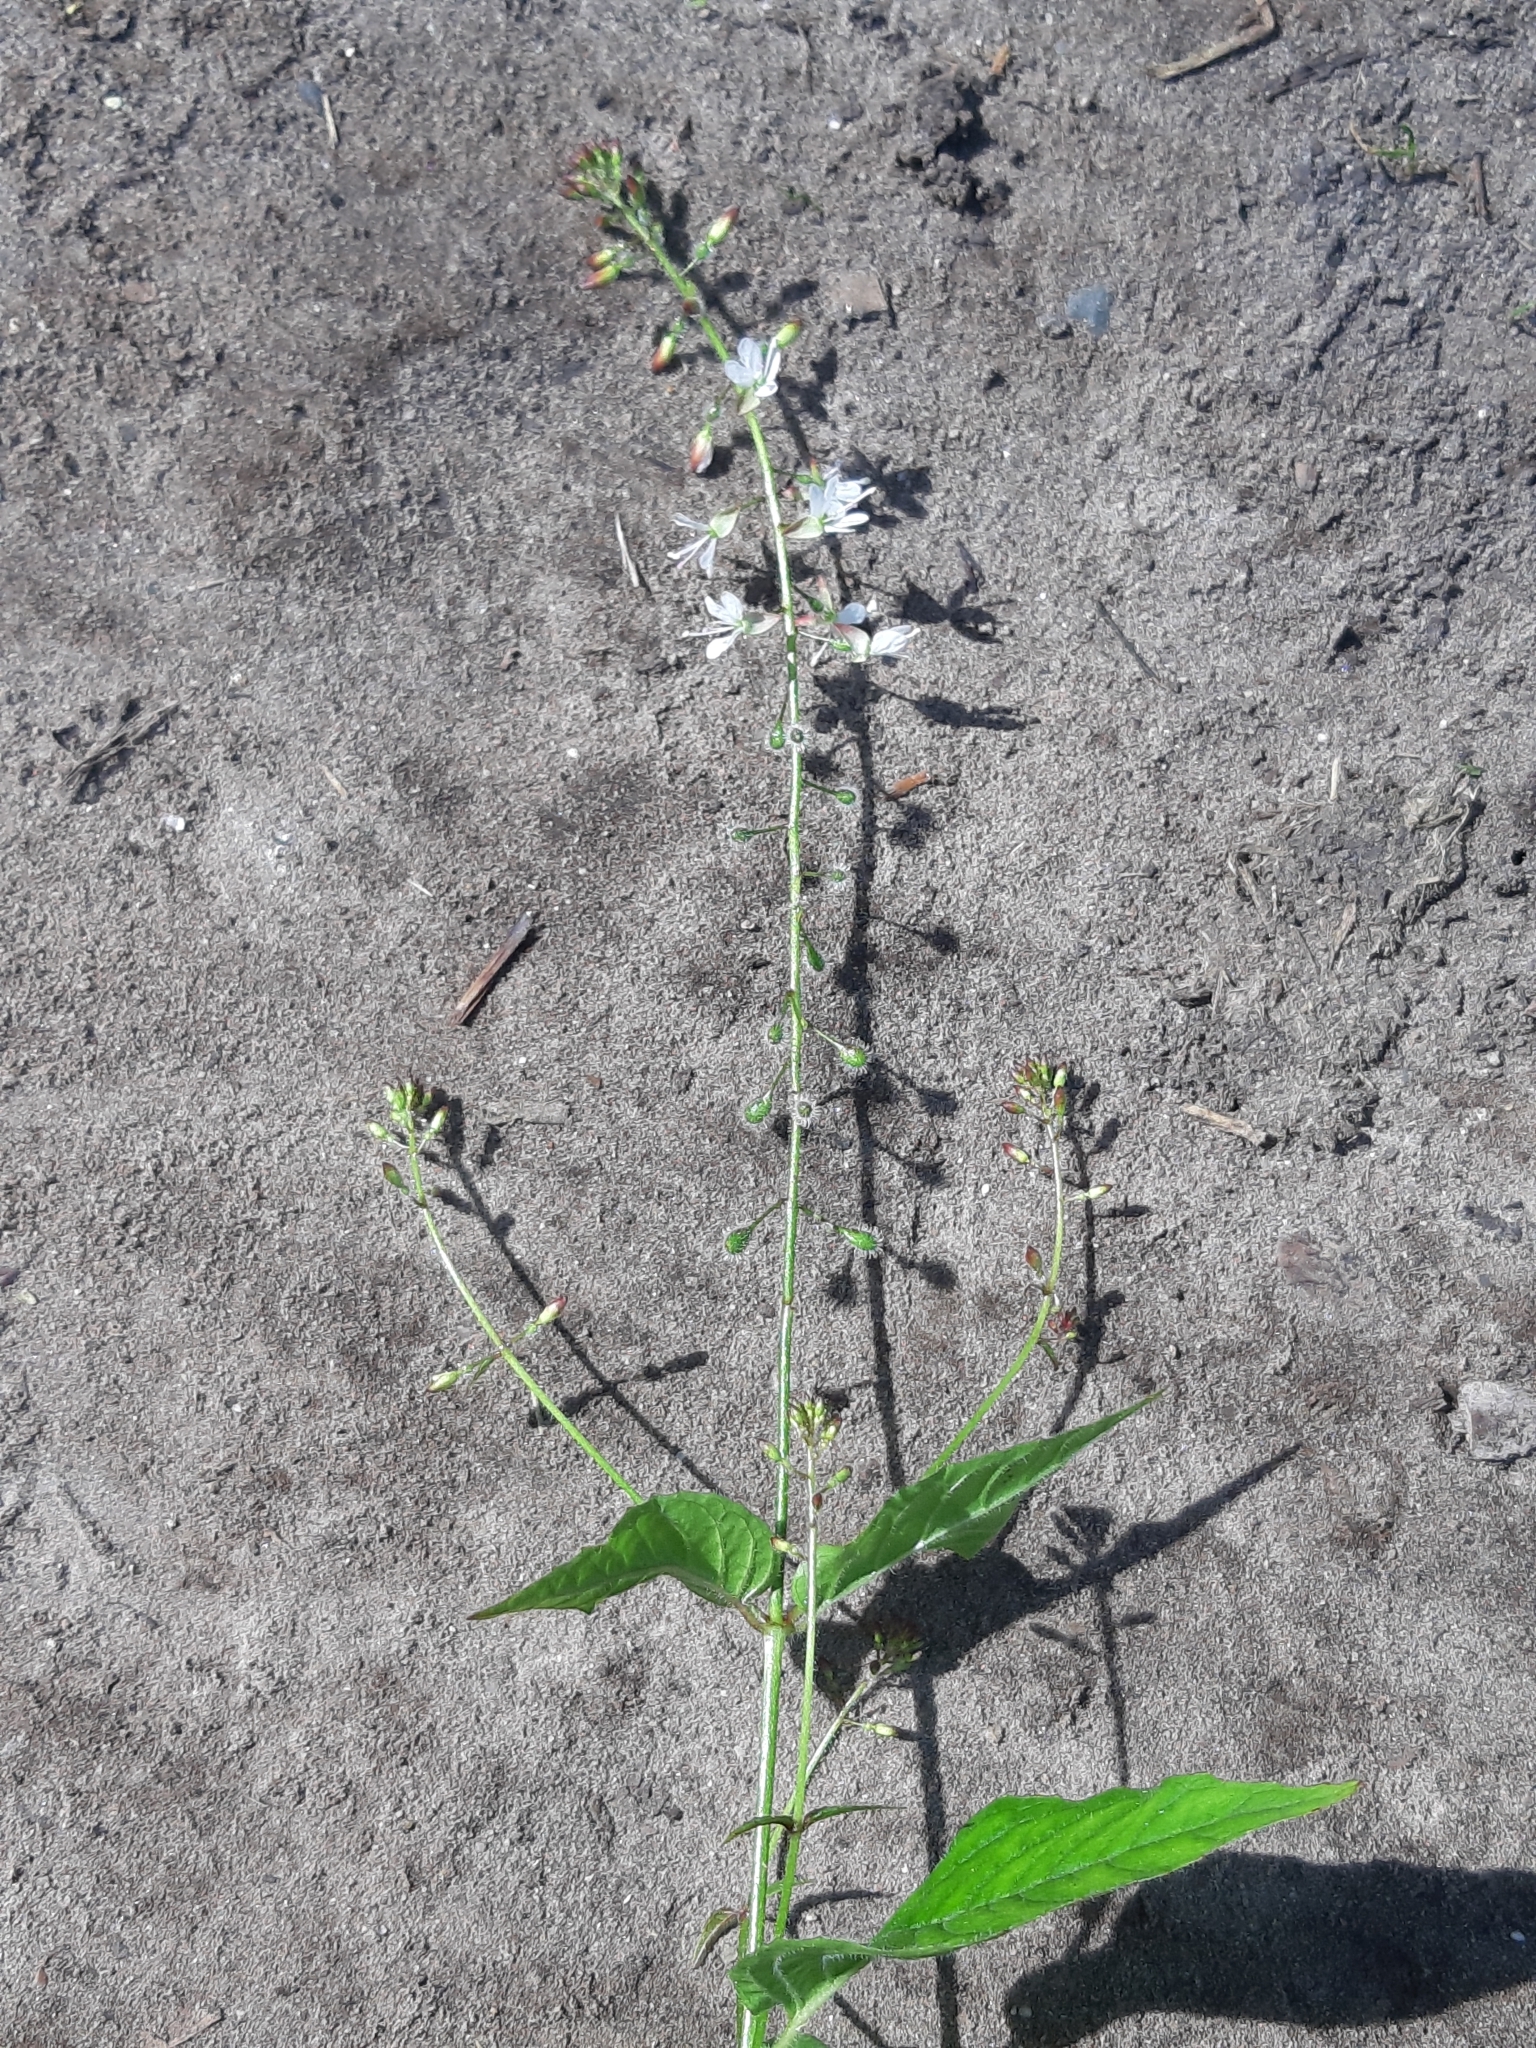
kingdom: Plantae
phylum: Tracheophyta
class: Magnoliopsida
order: Myrtales
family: Onagraceae
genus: Circaea
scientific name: Circaea lutetiana
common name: Enchanter's-nightshade
